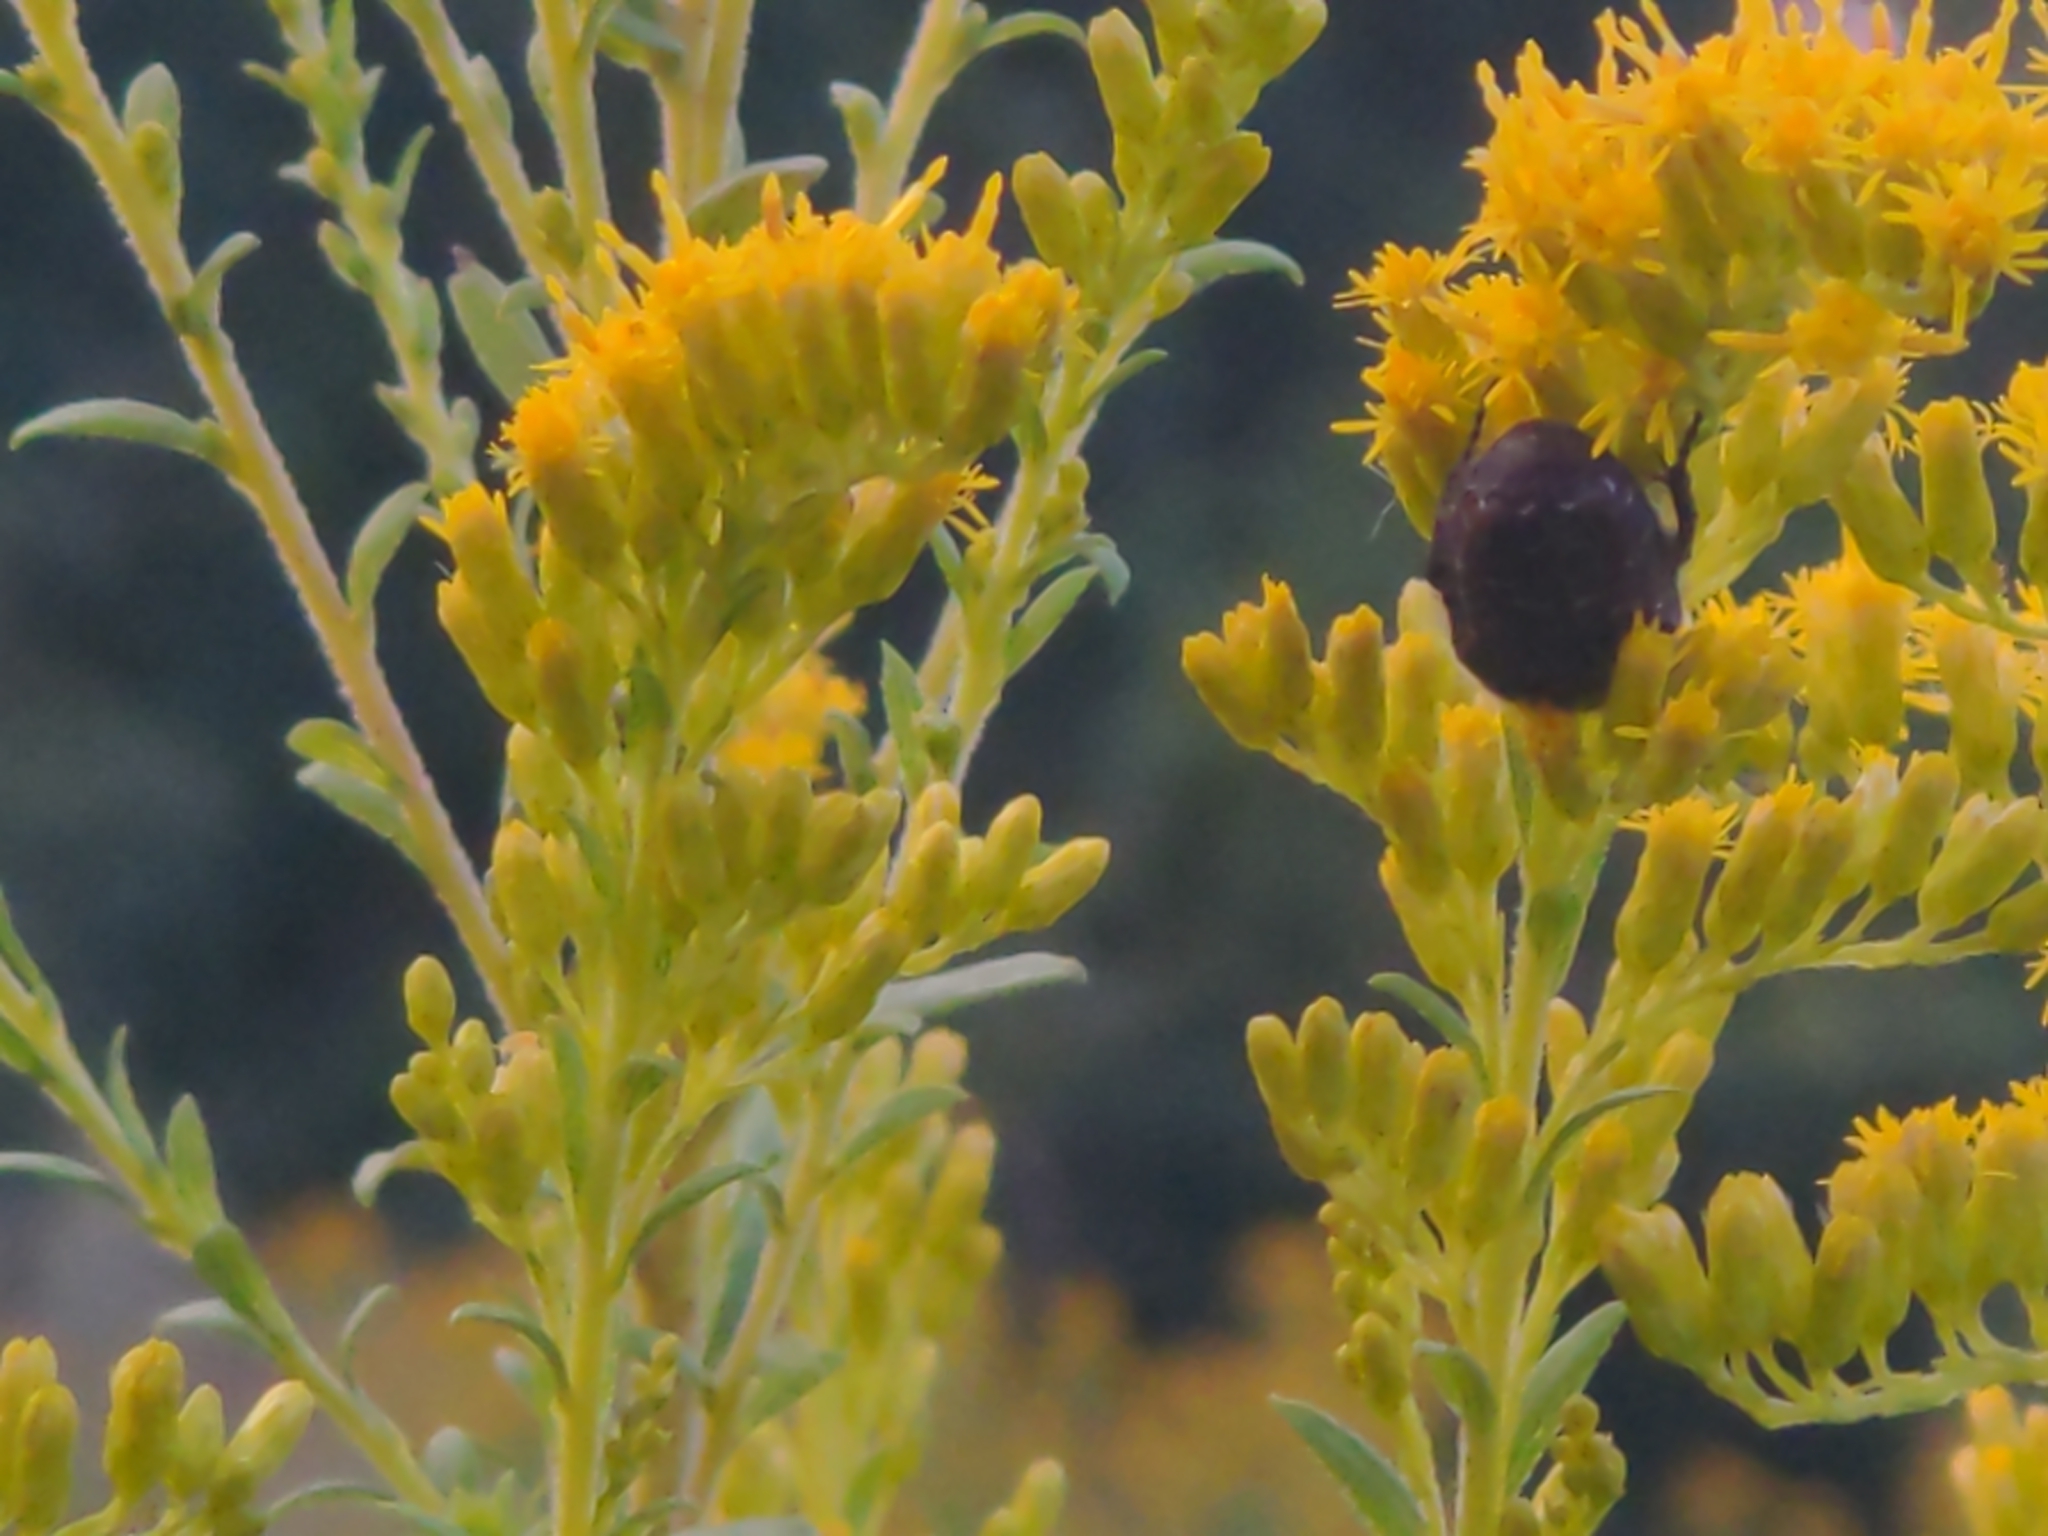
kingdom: Animalia
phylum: Arthropoda
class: Insecta
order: Coleoptera
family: Scarabaeidae
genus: Euphoria
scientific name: Euphoria sepulcralis
